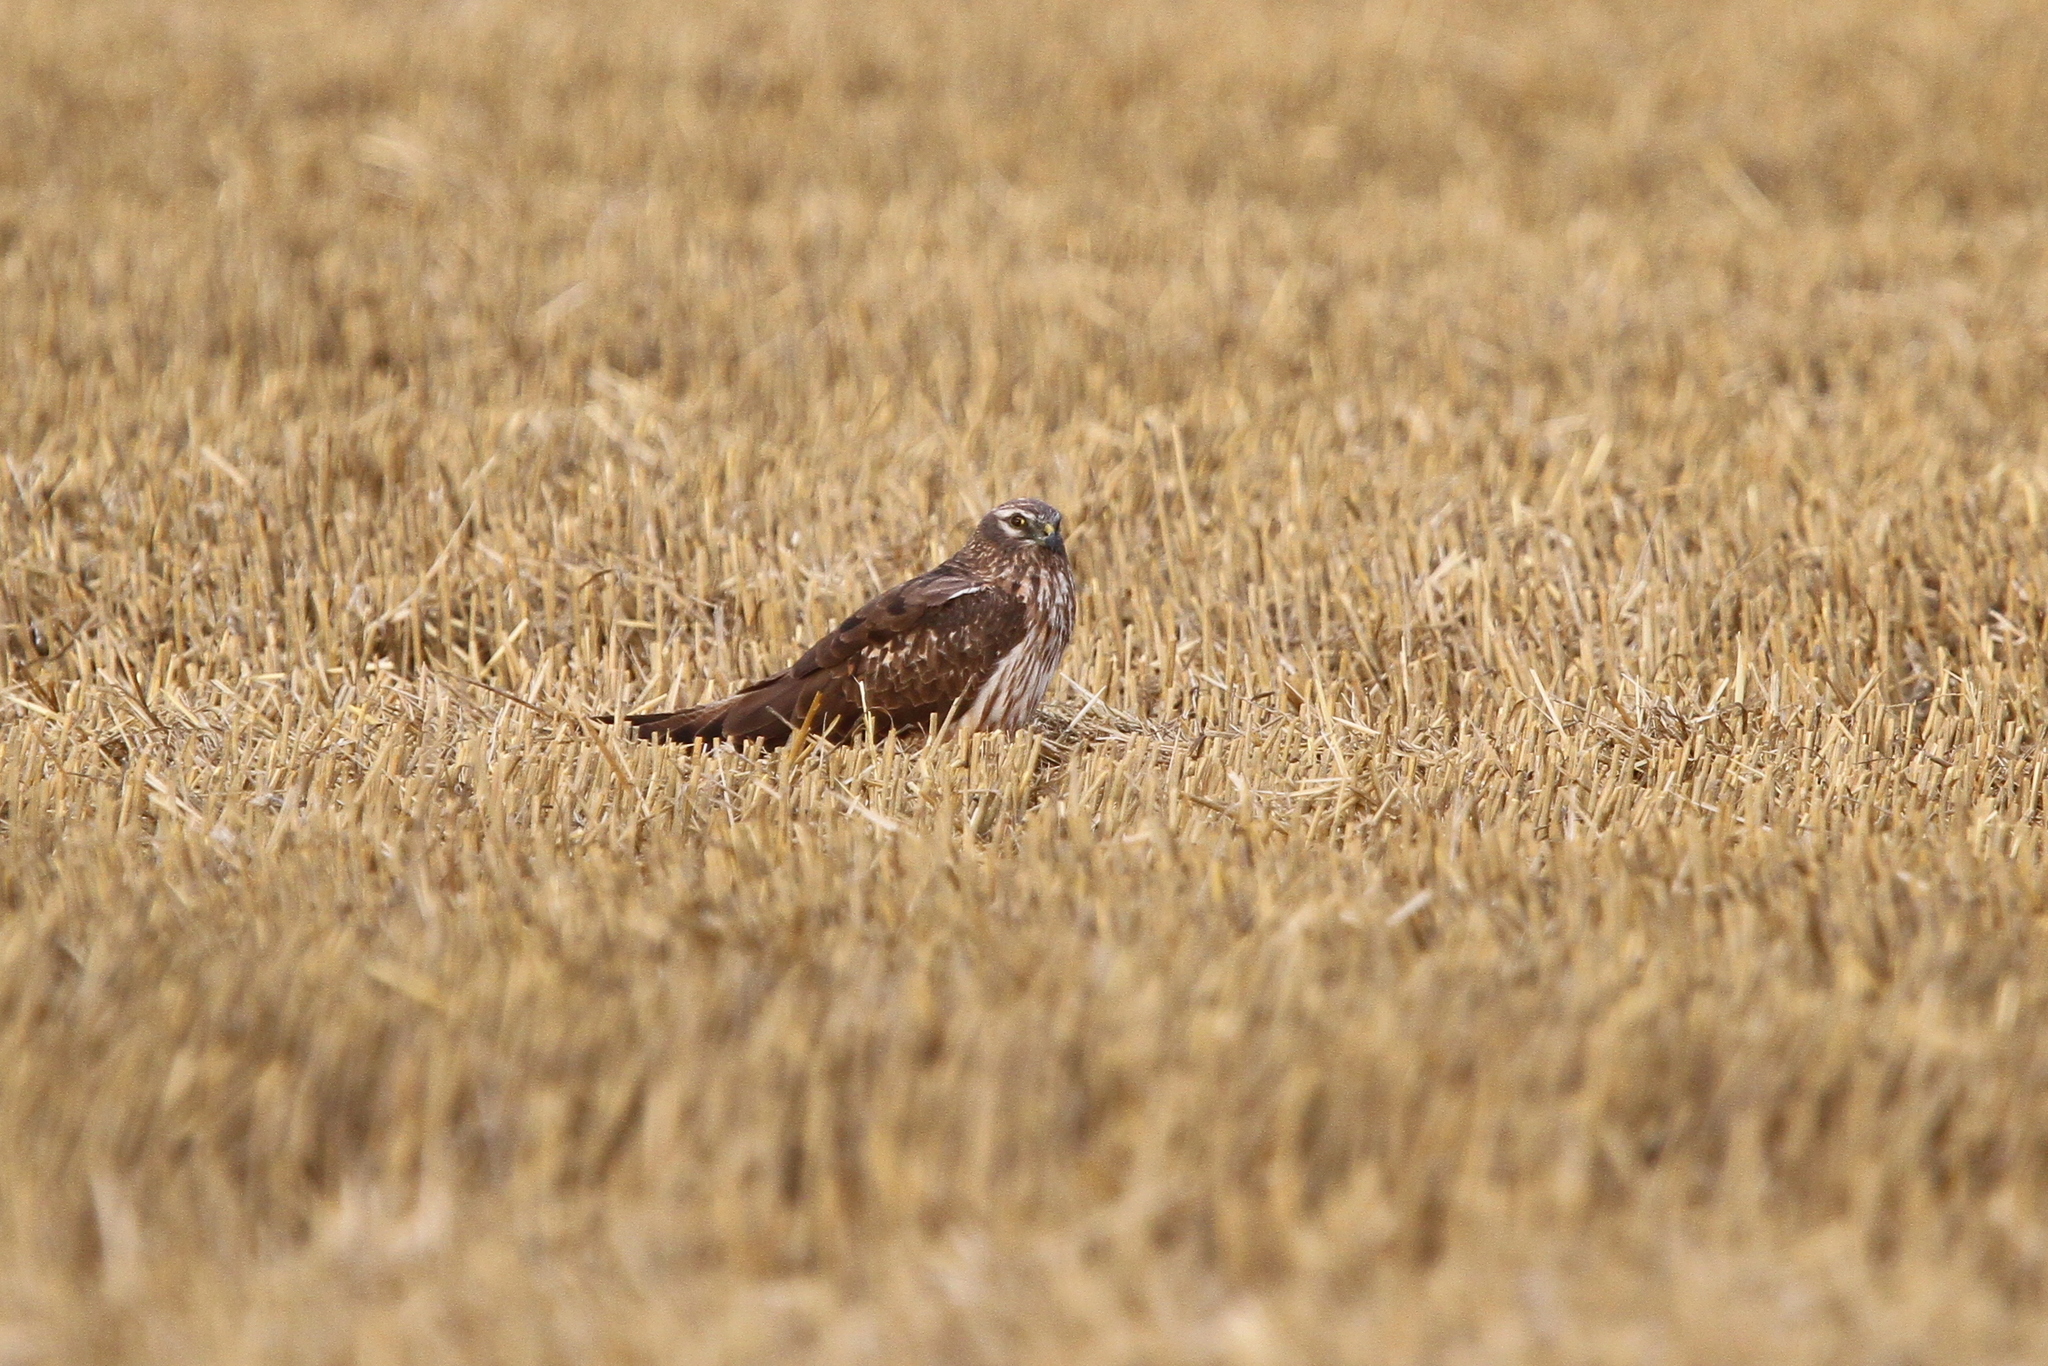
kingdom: Animalia
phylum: Chordata
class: Aves
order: Accipitriformes
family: Accipitridae
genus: Circus
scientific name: Circus pygargus
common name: Montagu's harrier
